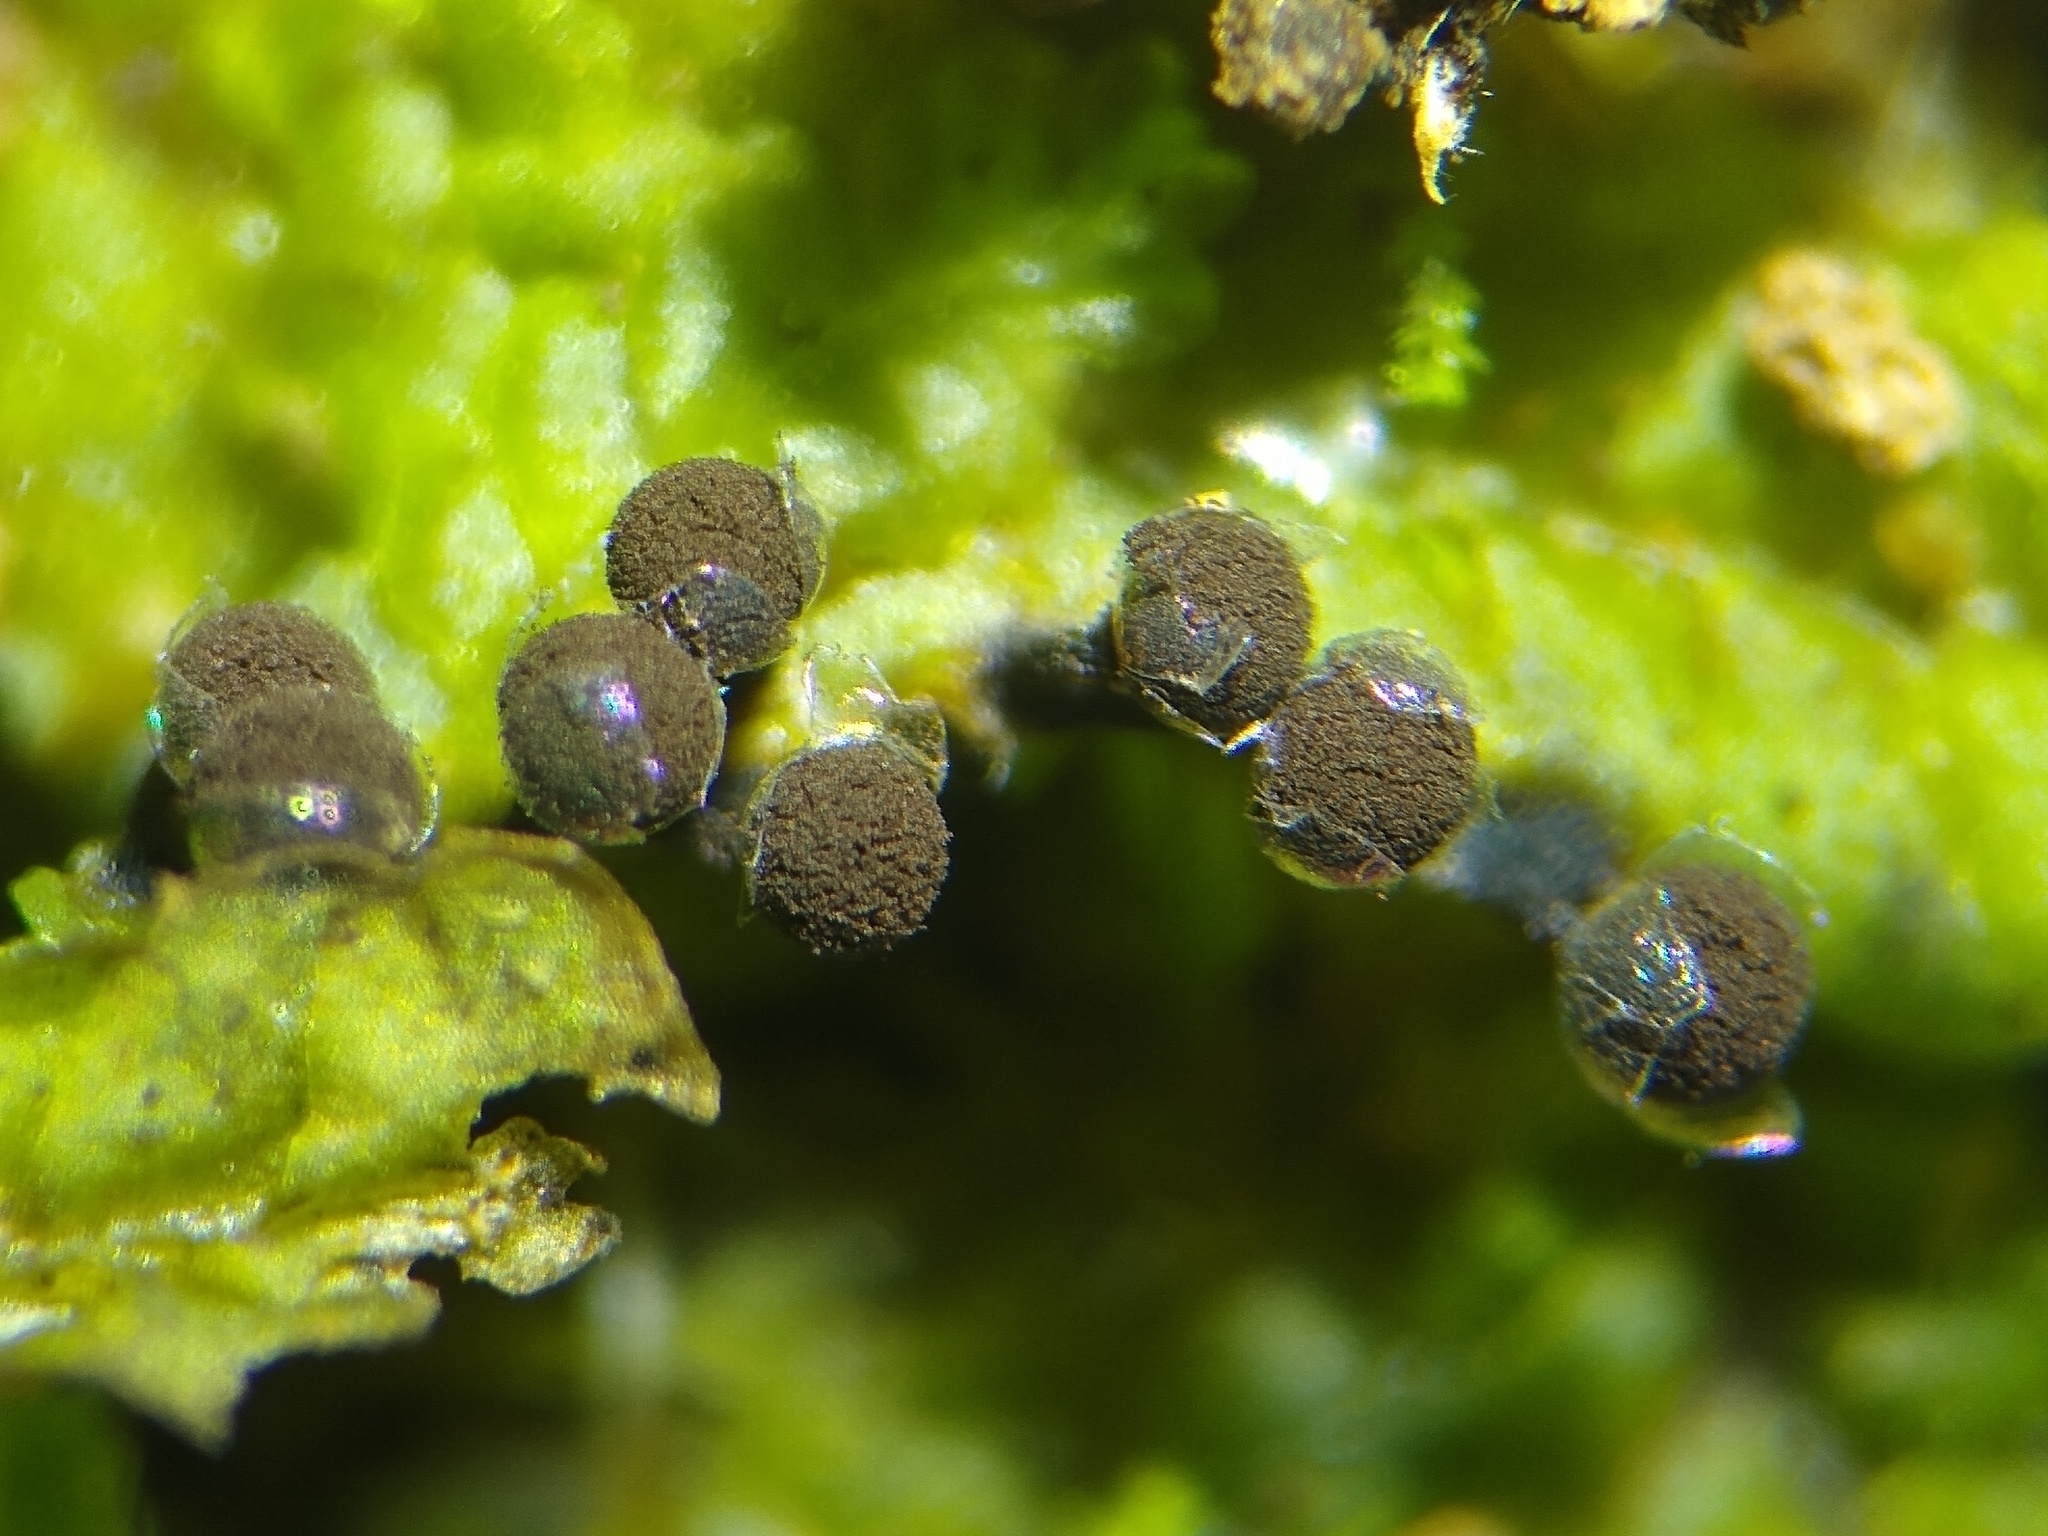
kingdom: Protozoa
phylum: Mycetozoa
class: Myxomycetes
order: Physarales
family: Elaeomyxaceae
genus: Elaeomyxa
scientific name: Elaeomyxa cerifera
